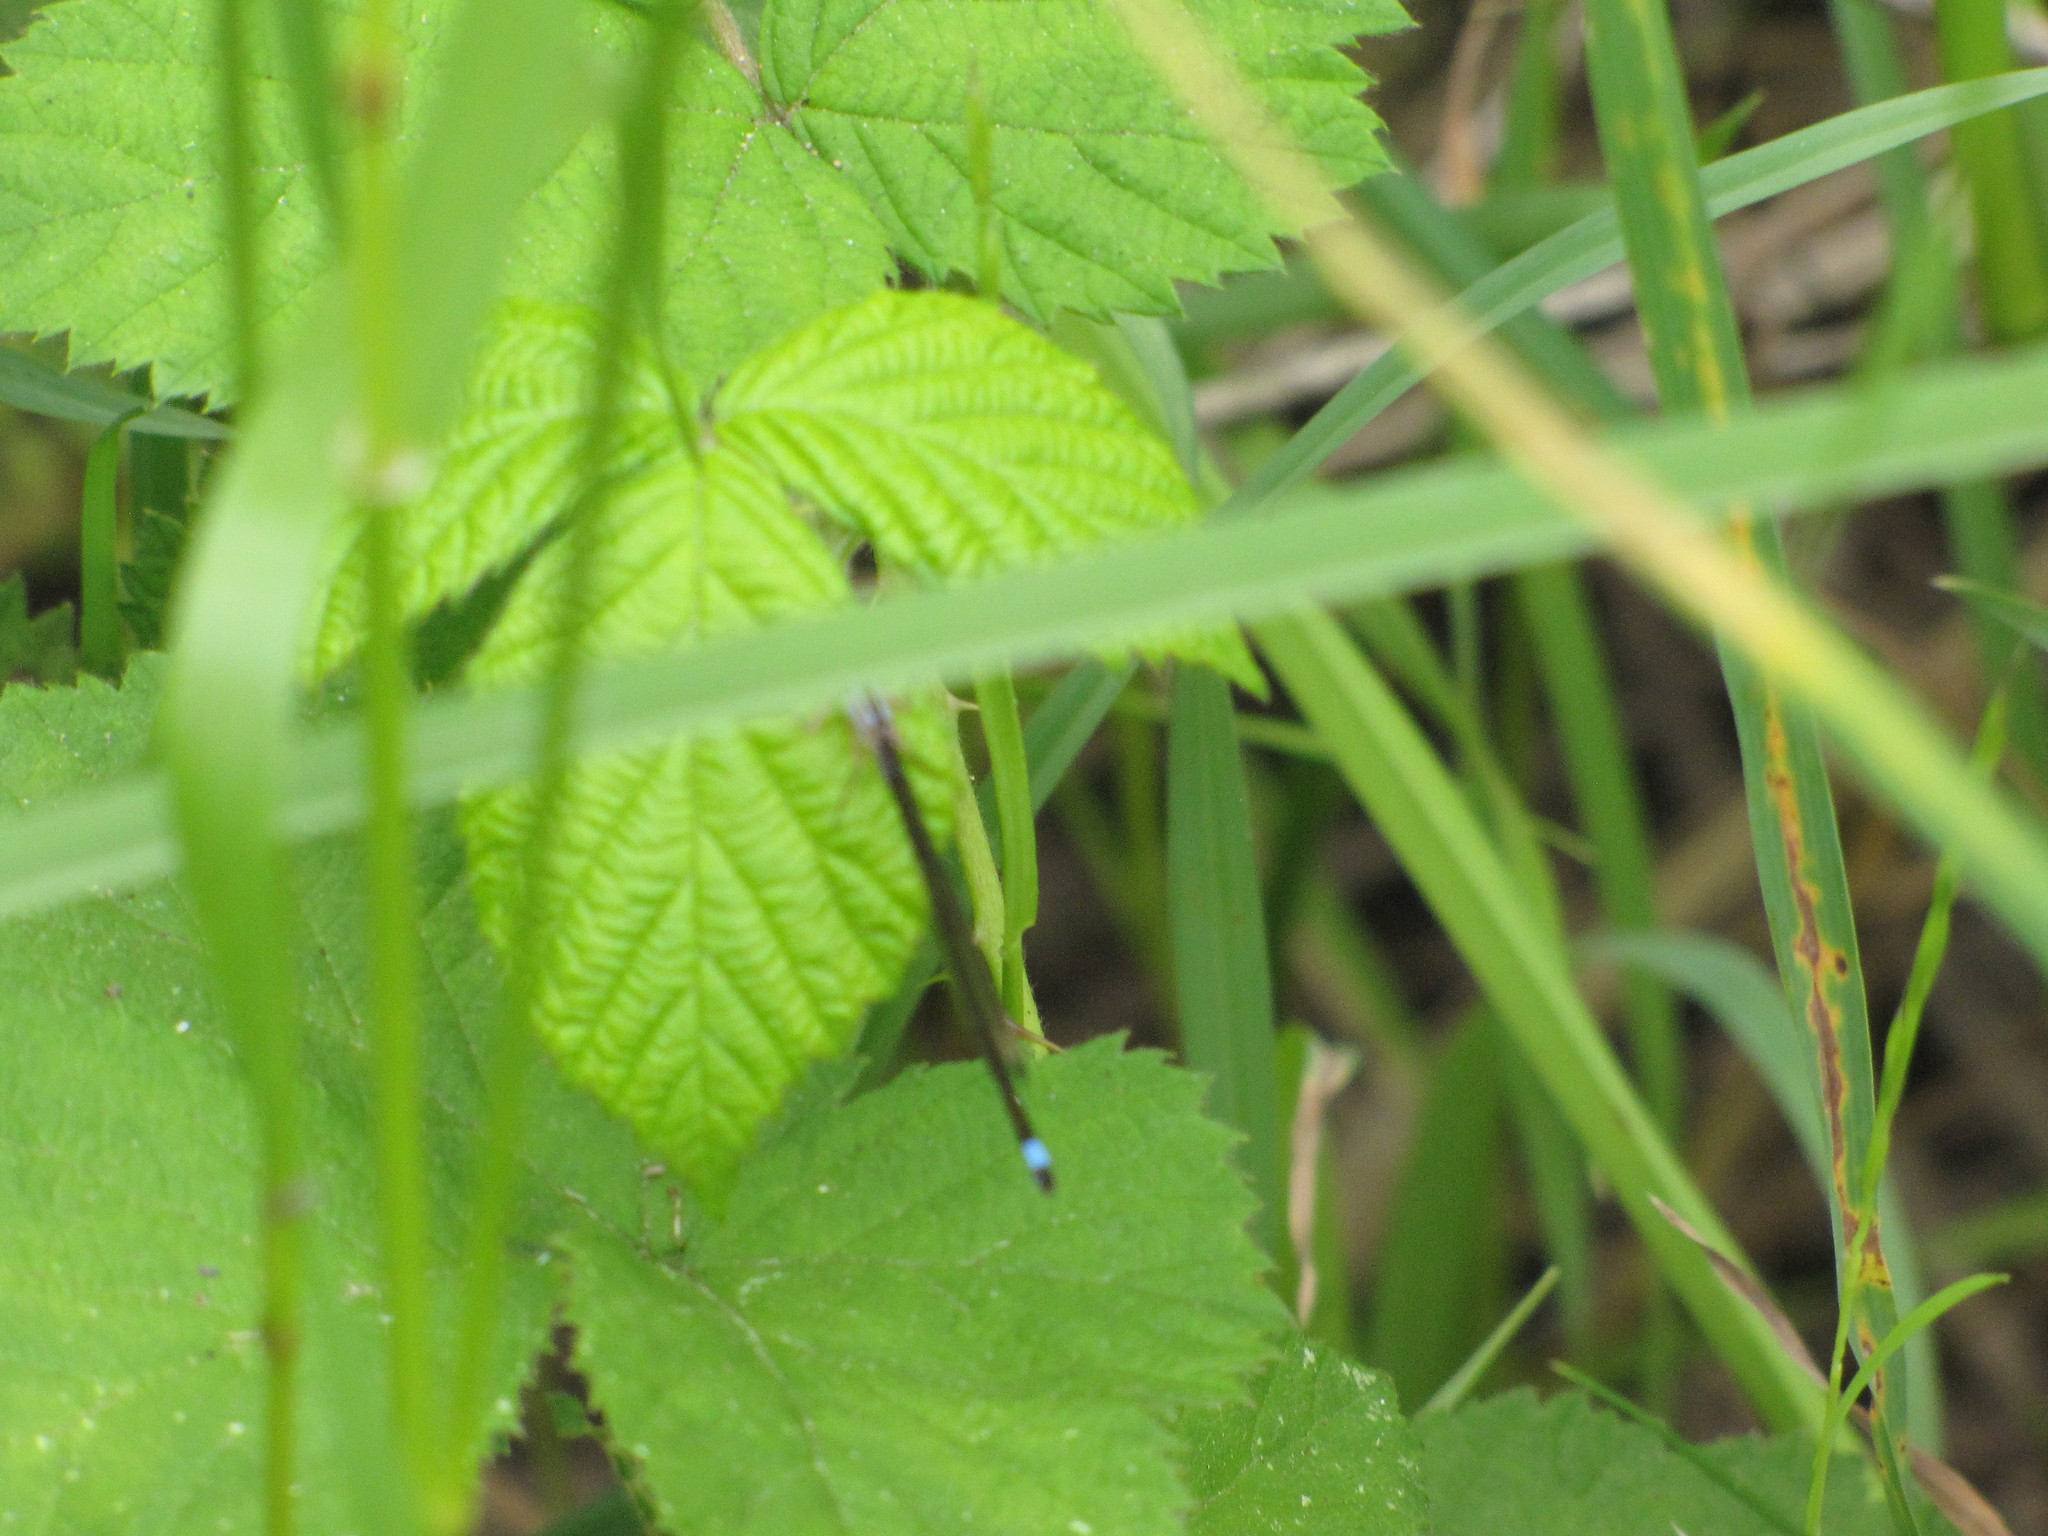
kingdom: Animalia
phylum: Arthropoda
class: Insecta
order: Odonata
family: Coenagrionidae
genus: Ischnura
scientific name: Ischnura cervula
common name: Pacific forktail
